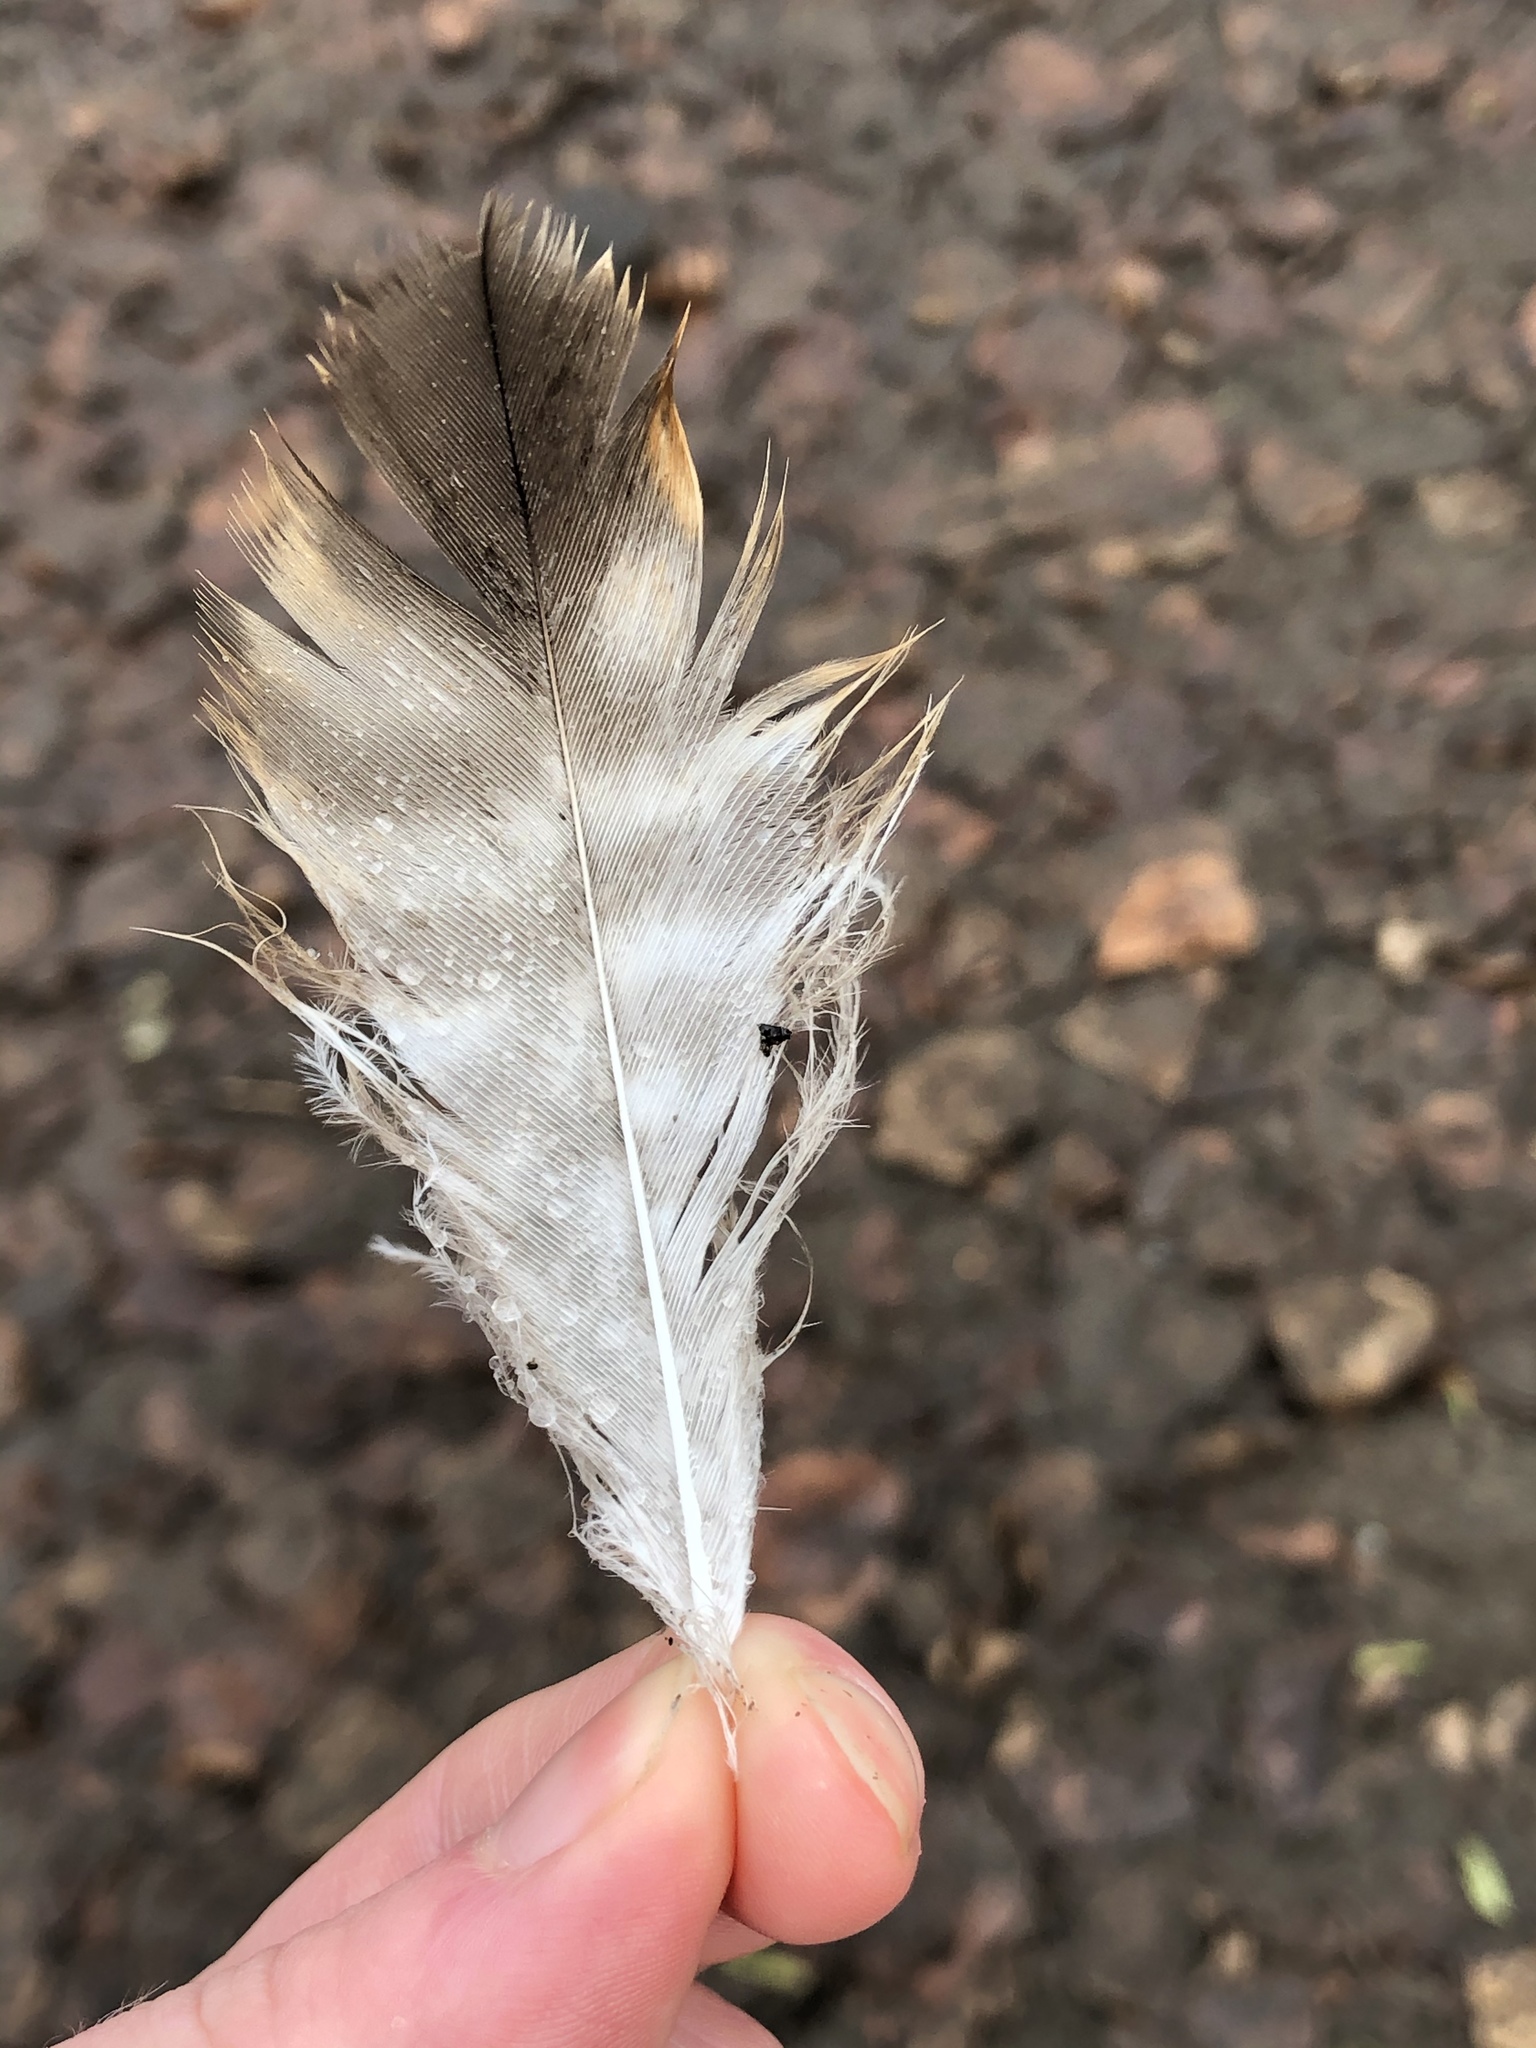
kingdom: Animalia
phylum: Chordata
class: Aves
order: Accipitriformes
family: Accipitridae
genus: Buteo
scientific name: Buteo jamaicensis
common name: Red-tailed hawk
